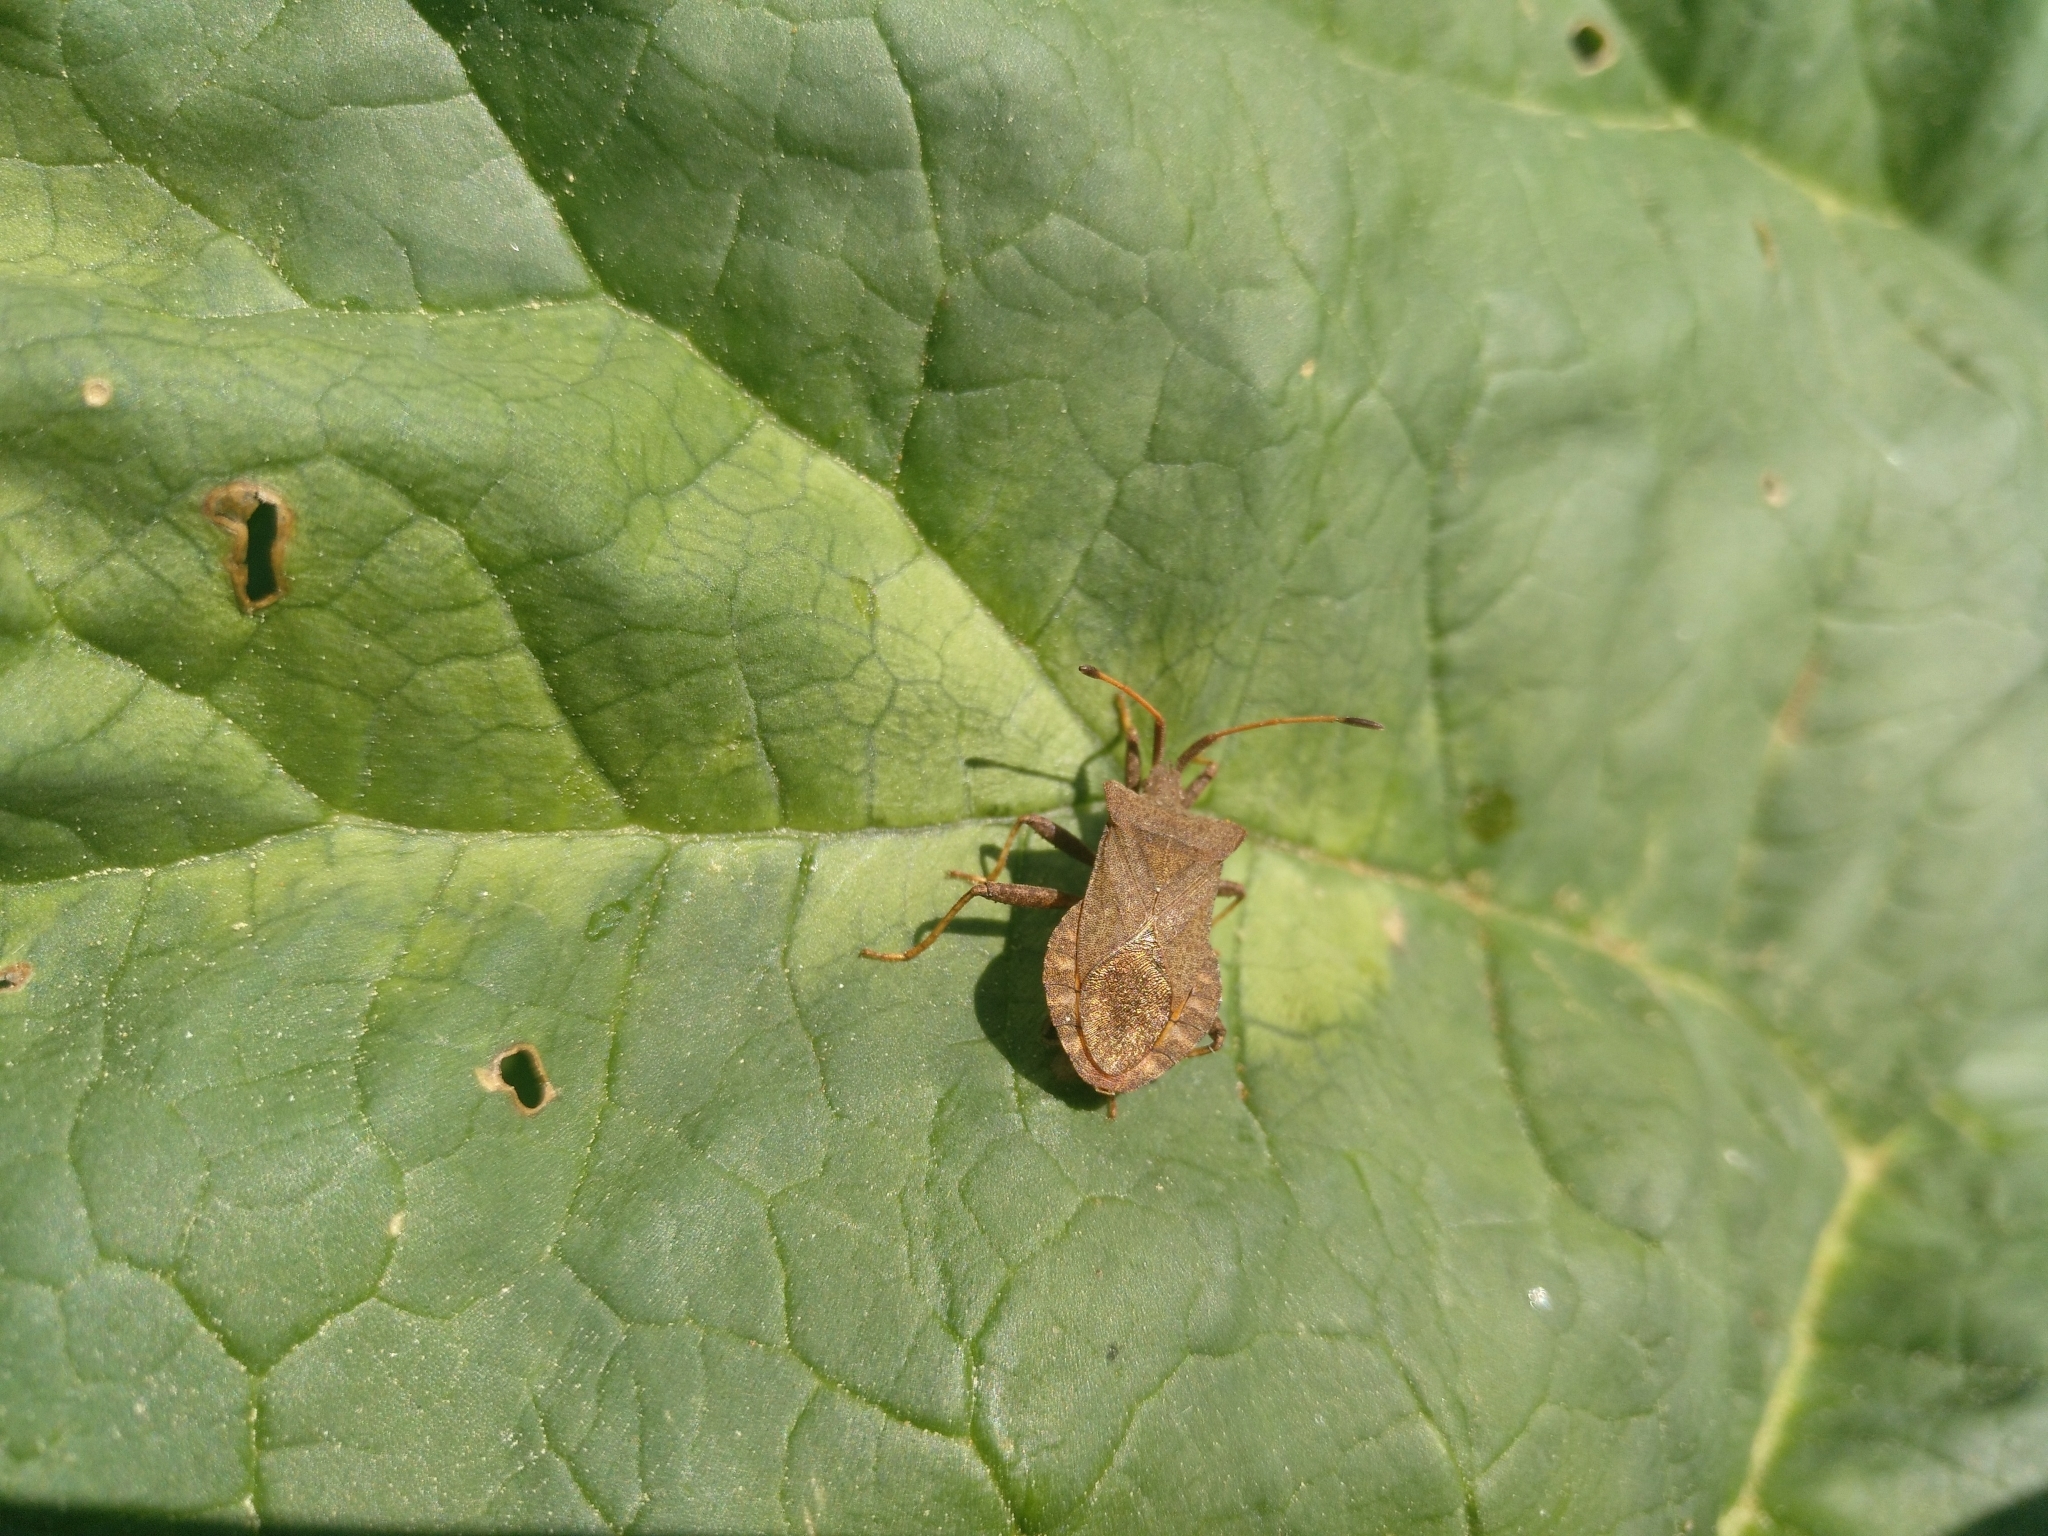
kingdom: Animalia
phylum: Arthropoda
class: Insecta
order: Hemiptera
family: Coreidae
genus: Coreus
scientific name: Coreus marginatus
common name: Dock bug
